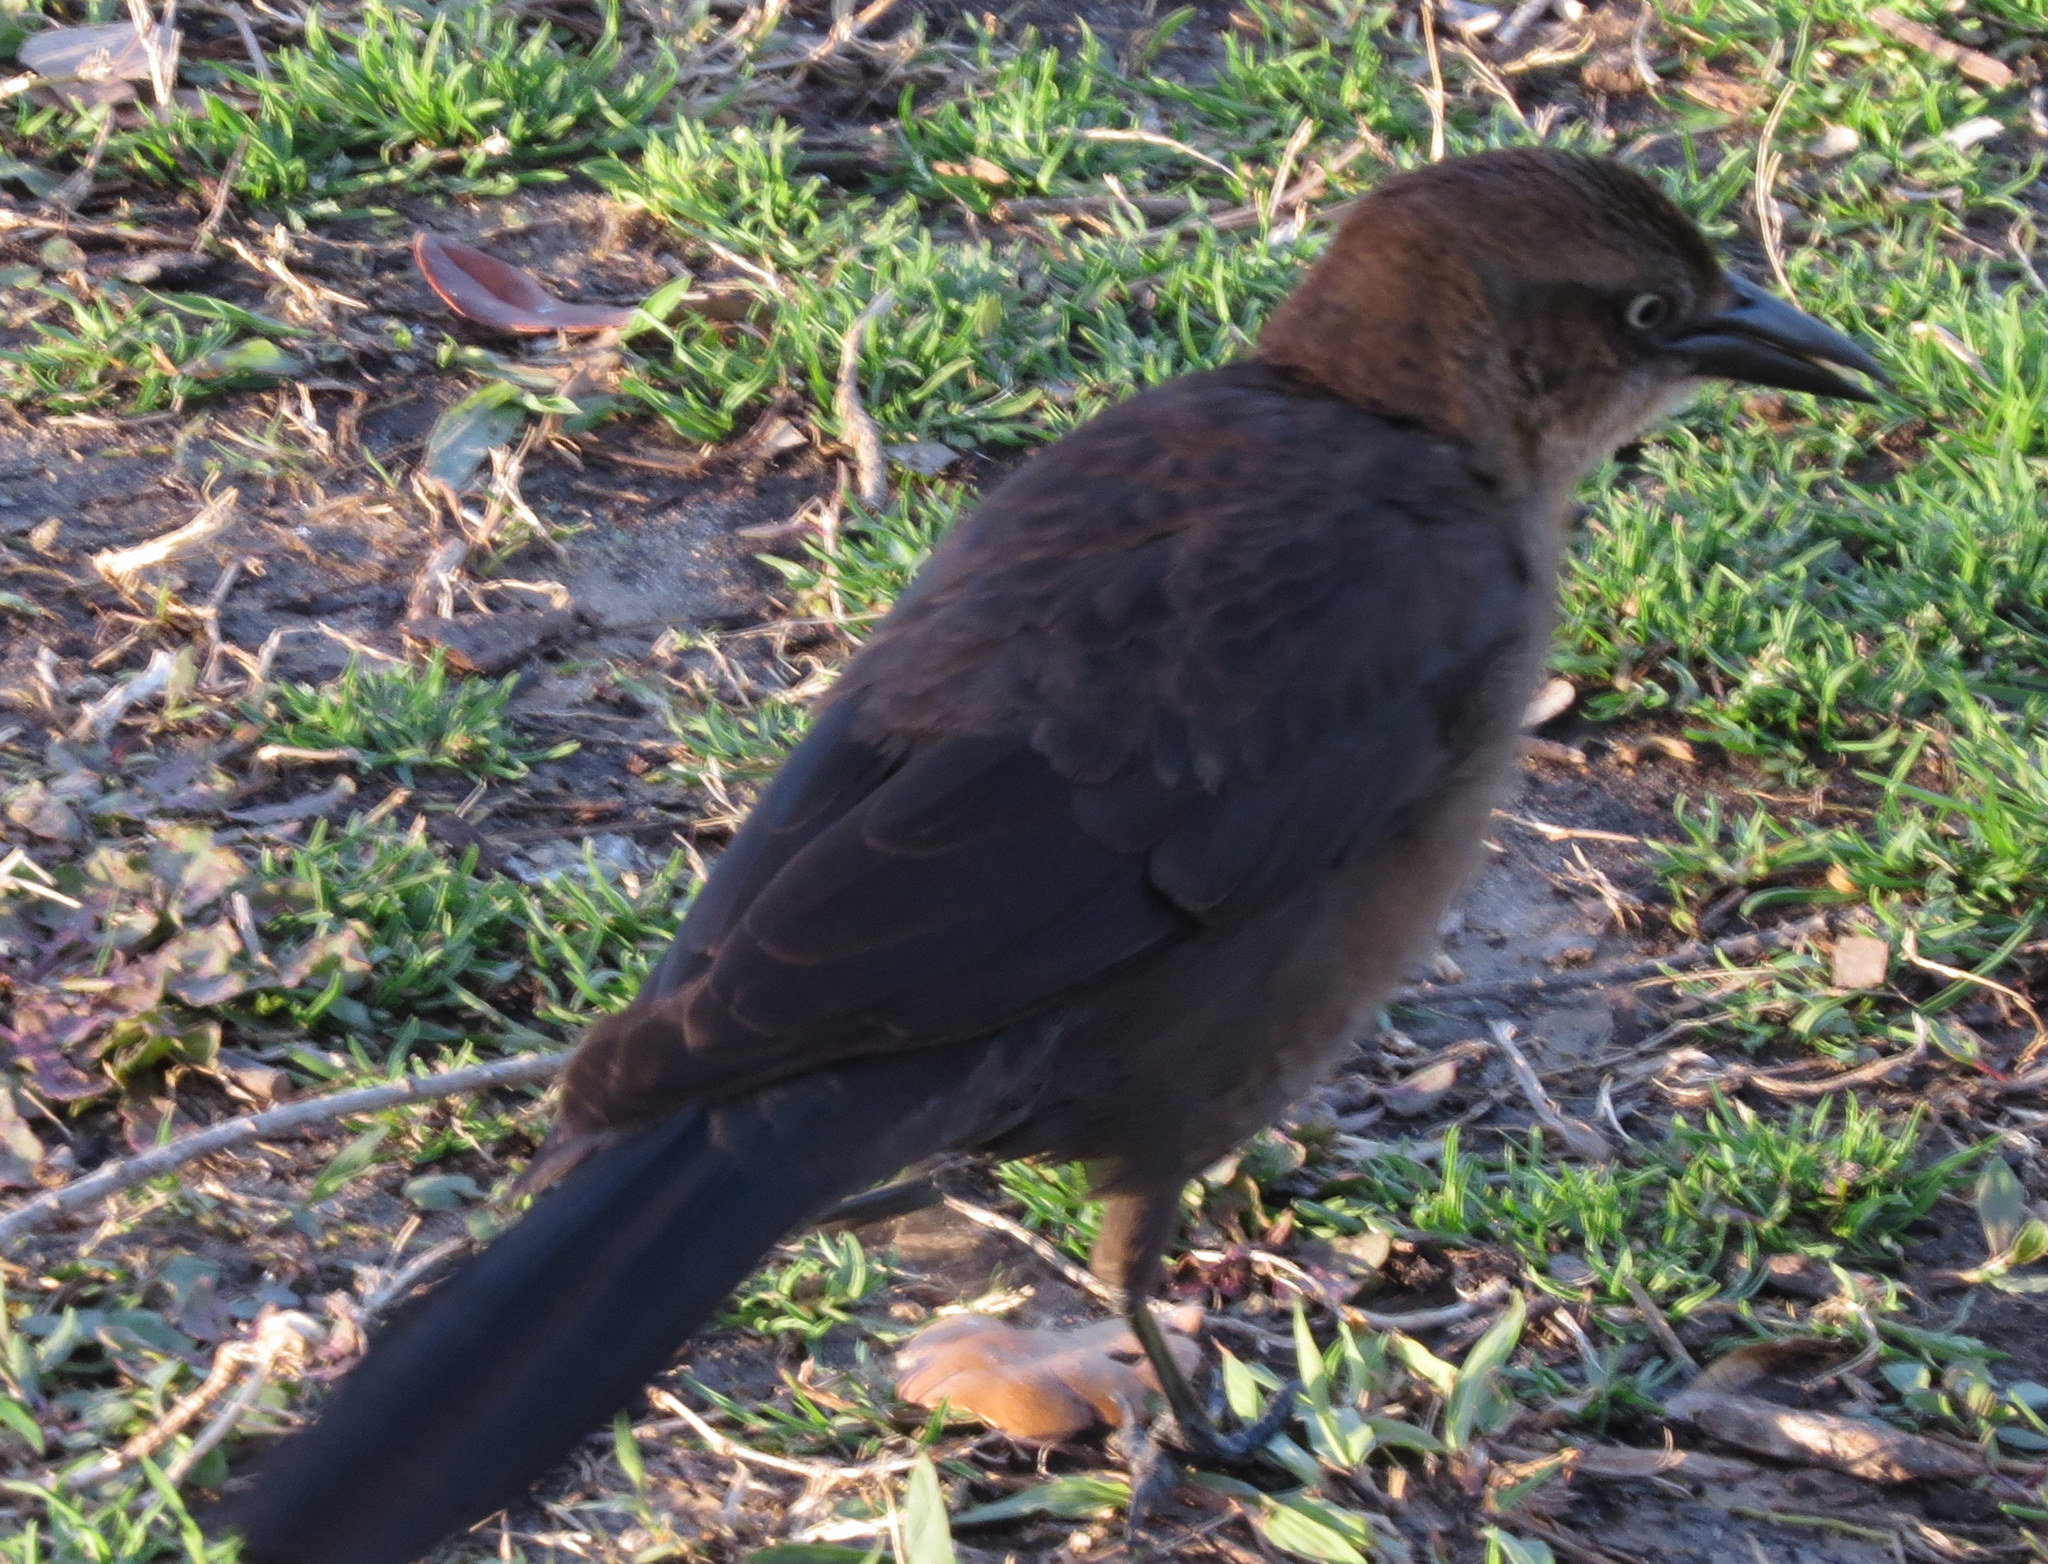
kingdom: Animalia
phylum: Chordata
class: Aves
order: Passeriformes
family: Icteridae
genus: Quiscalus
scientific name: Quiscalus mexicanus
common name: Great-tailed grackle
